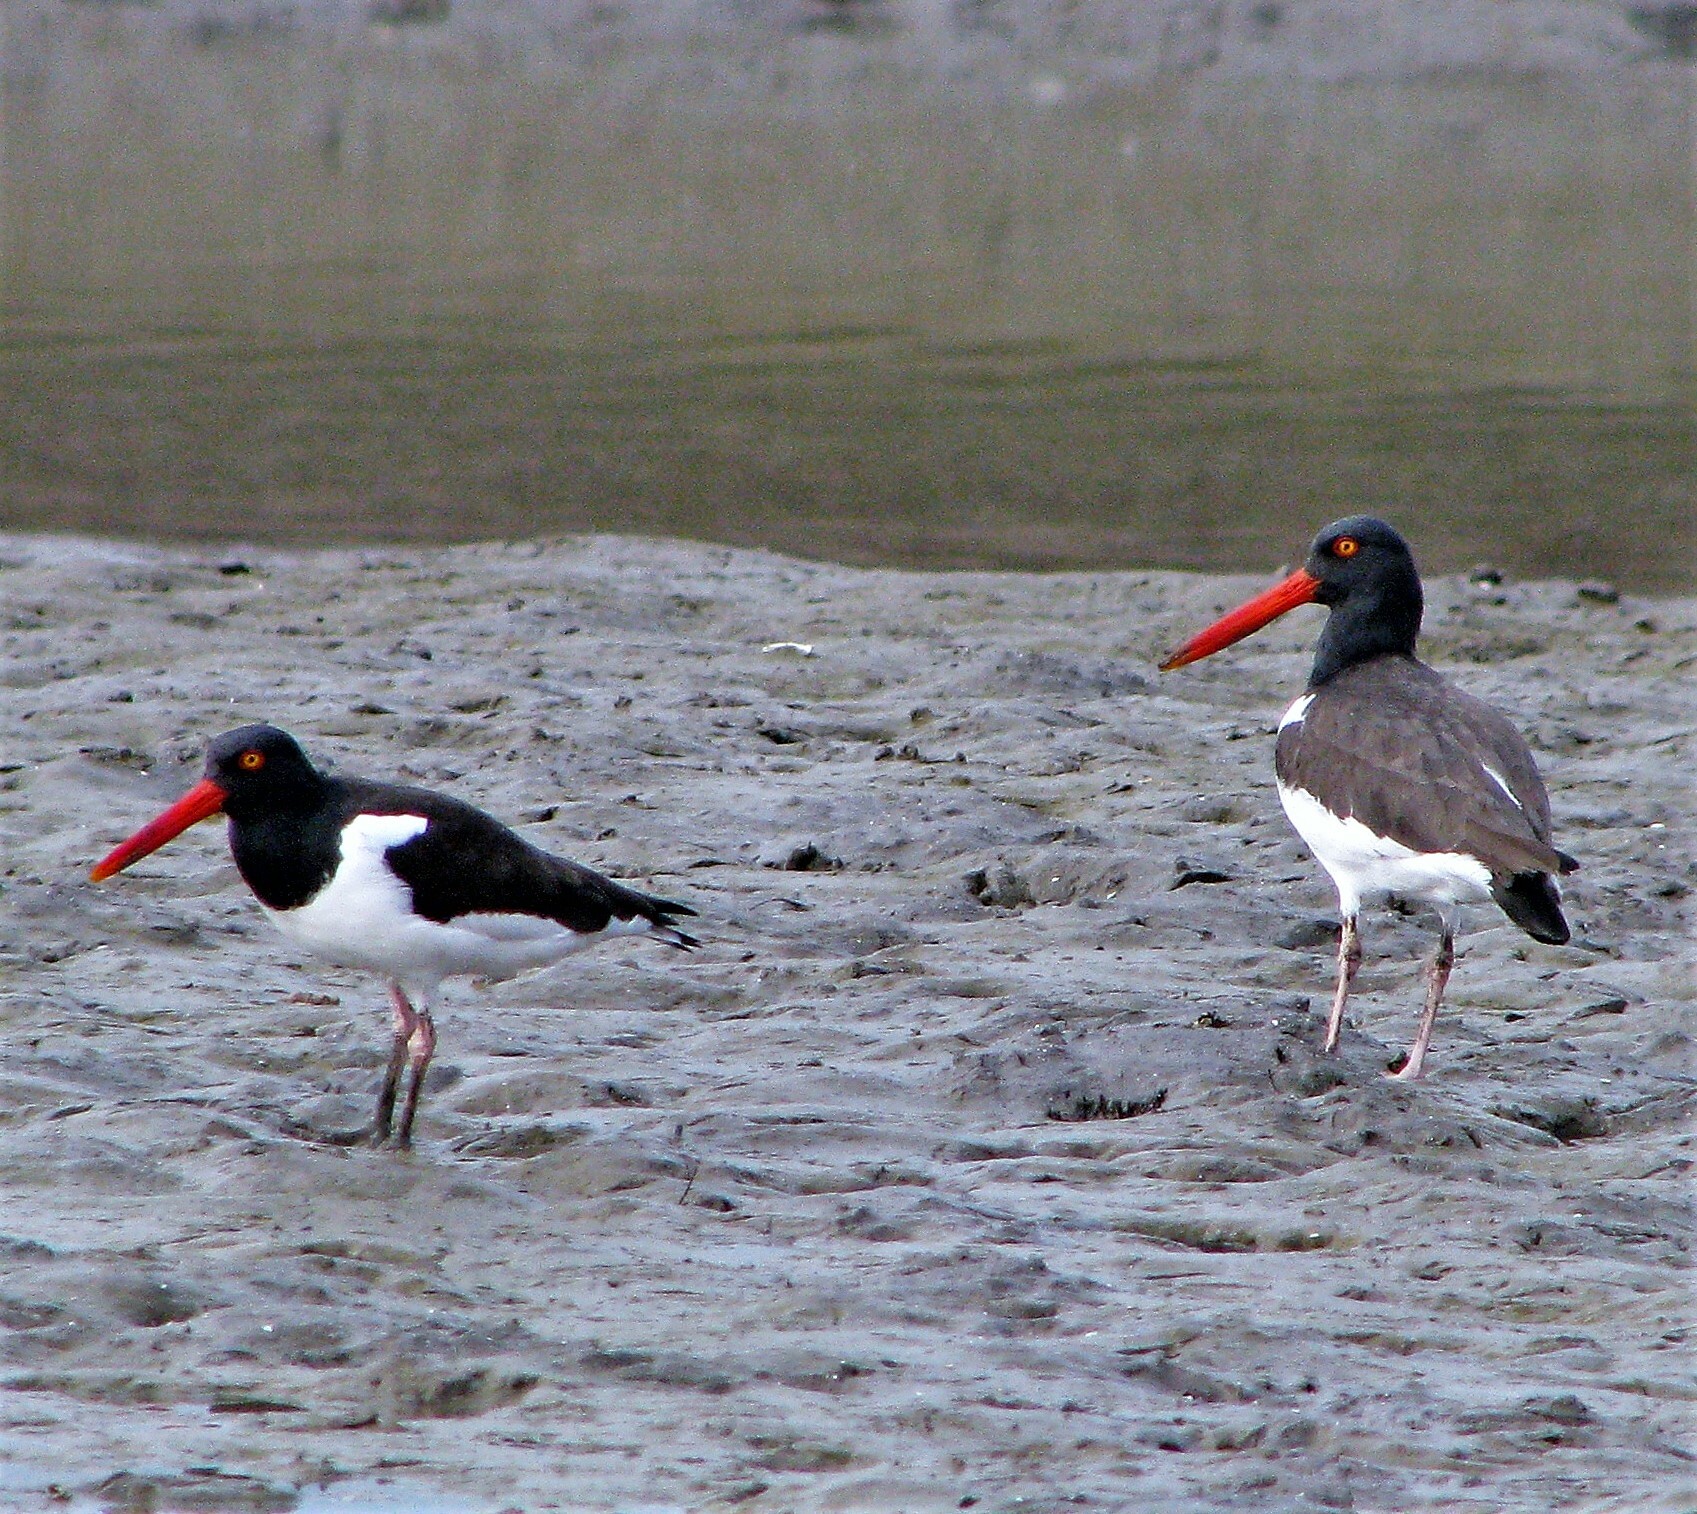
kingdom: Animalia
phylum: Chordata
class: Aves
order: Charadriiformes
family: Haematopodidae
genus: Haematopus
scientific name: Haematopus palliatus
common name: American oystercatcher
